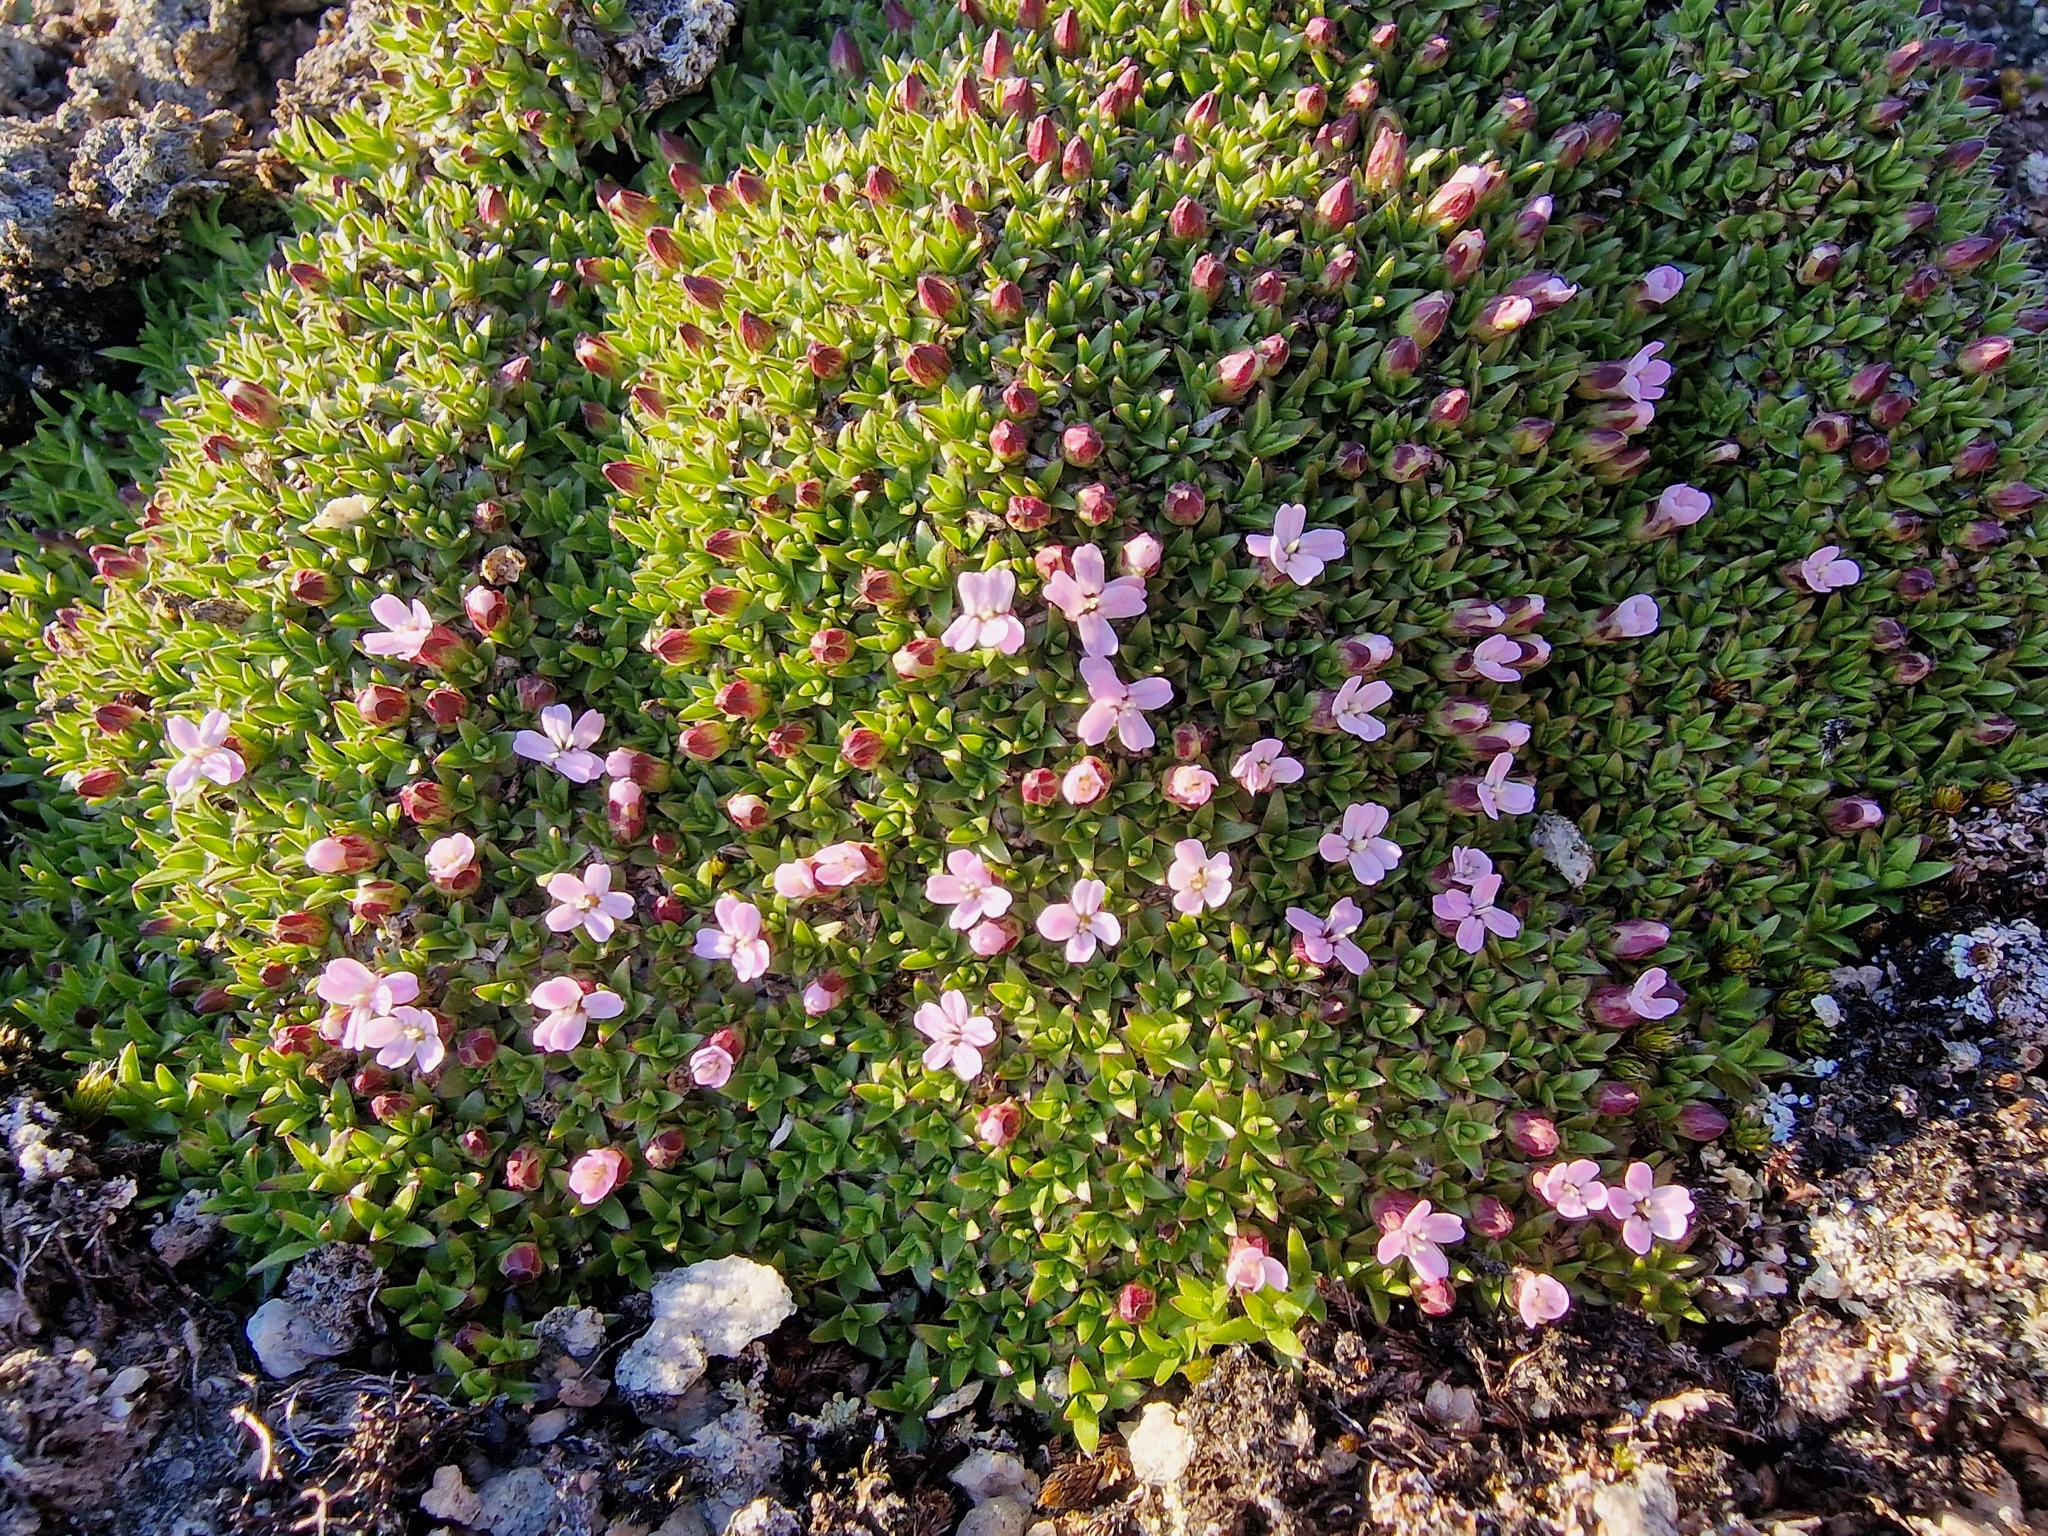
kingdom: Plantae
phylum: Tracheophyta
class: Magnoliopsida
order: Caryophyllales
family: Caryophyllaceae
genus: Silene
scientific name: Silene acaulis
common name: Moss campion
